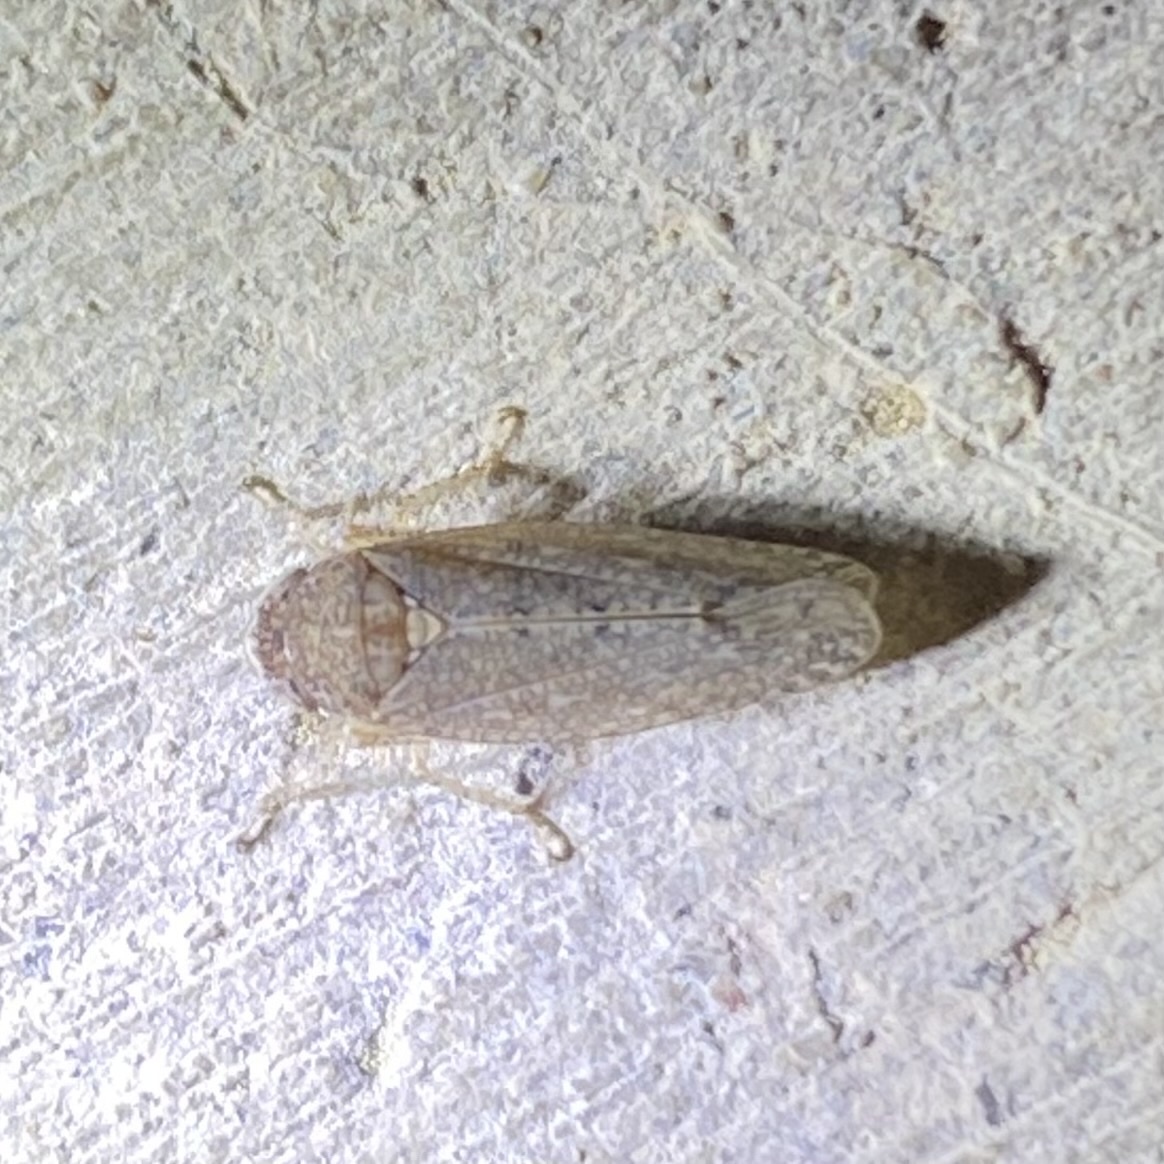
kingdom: Animalia
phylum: Arthropoda
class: Insecta
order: Hemiptera
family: Cicadellidae
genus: Texananus
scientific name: Texananus
